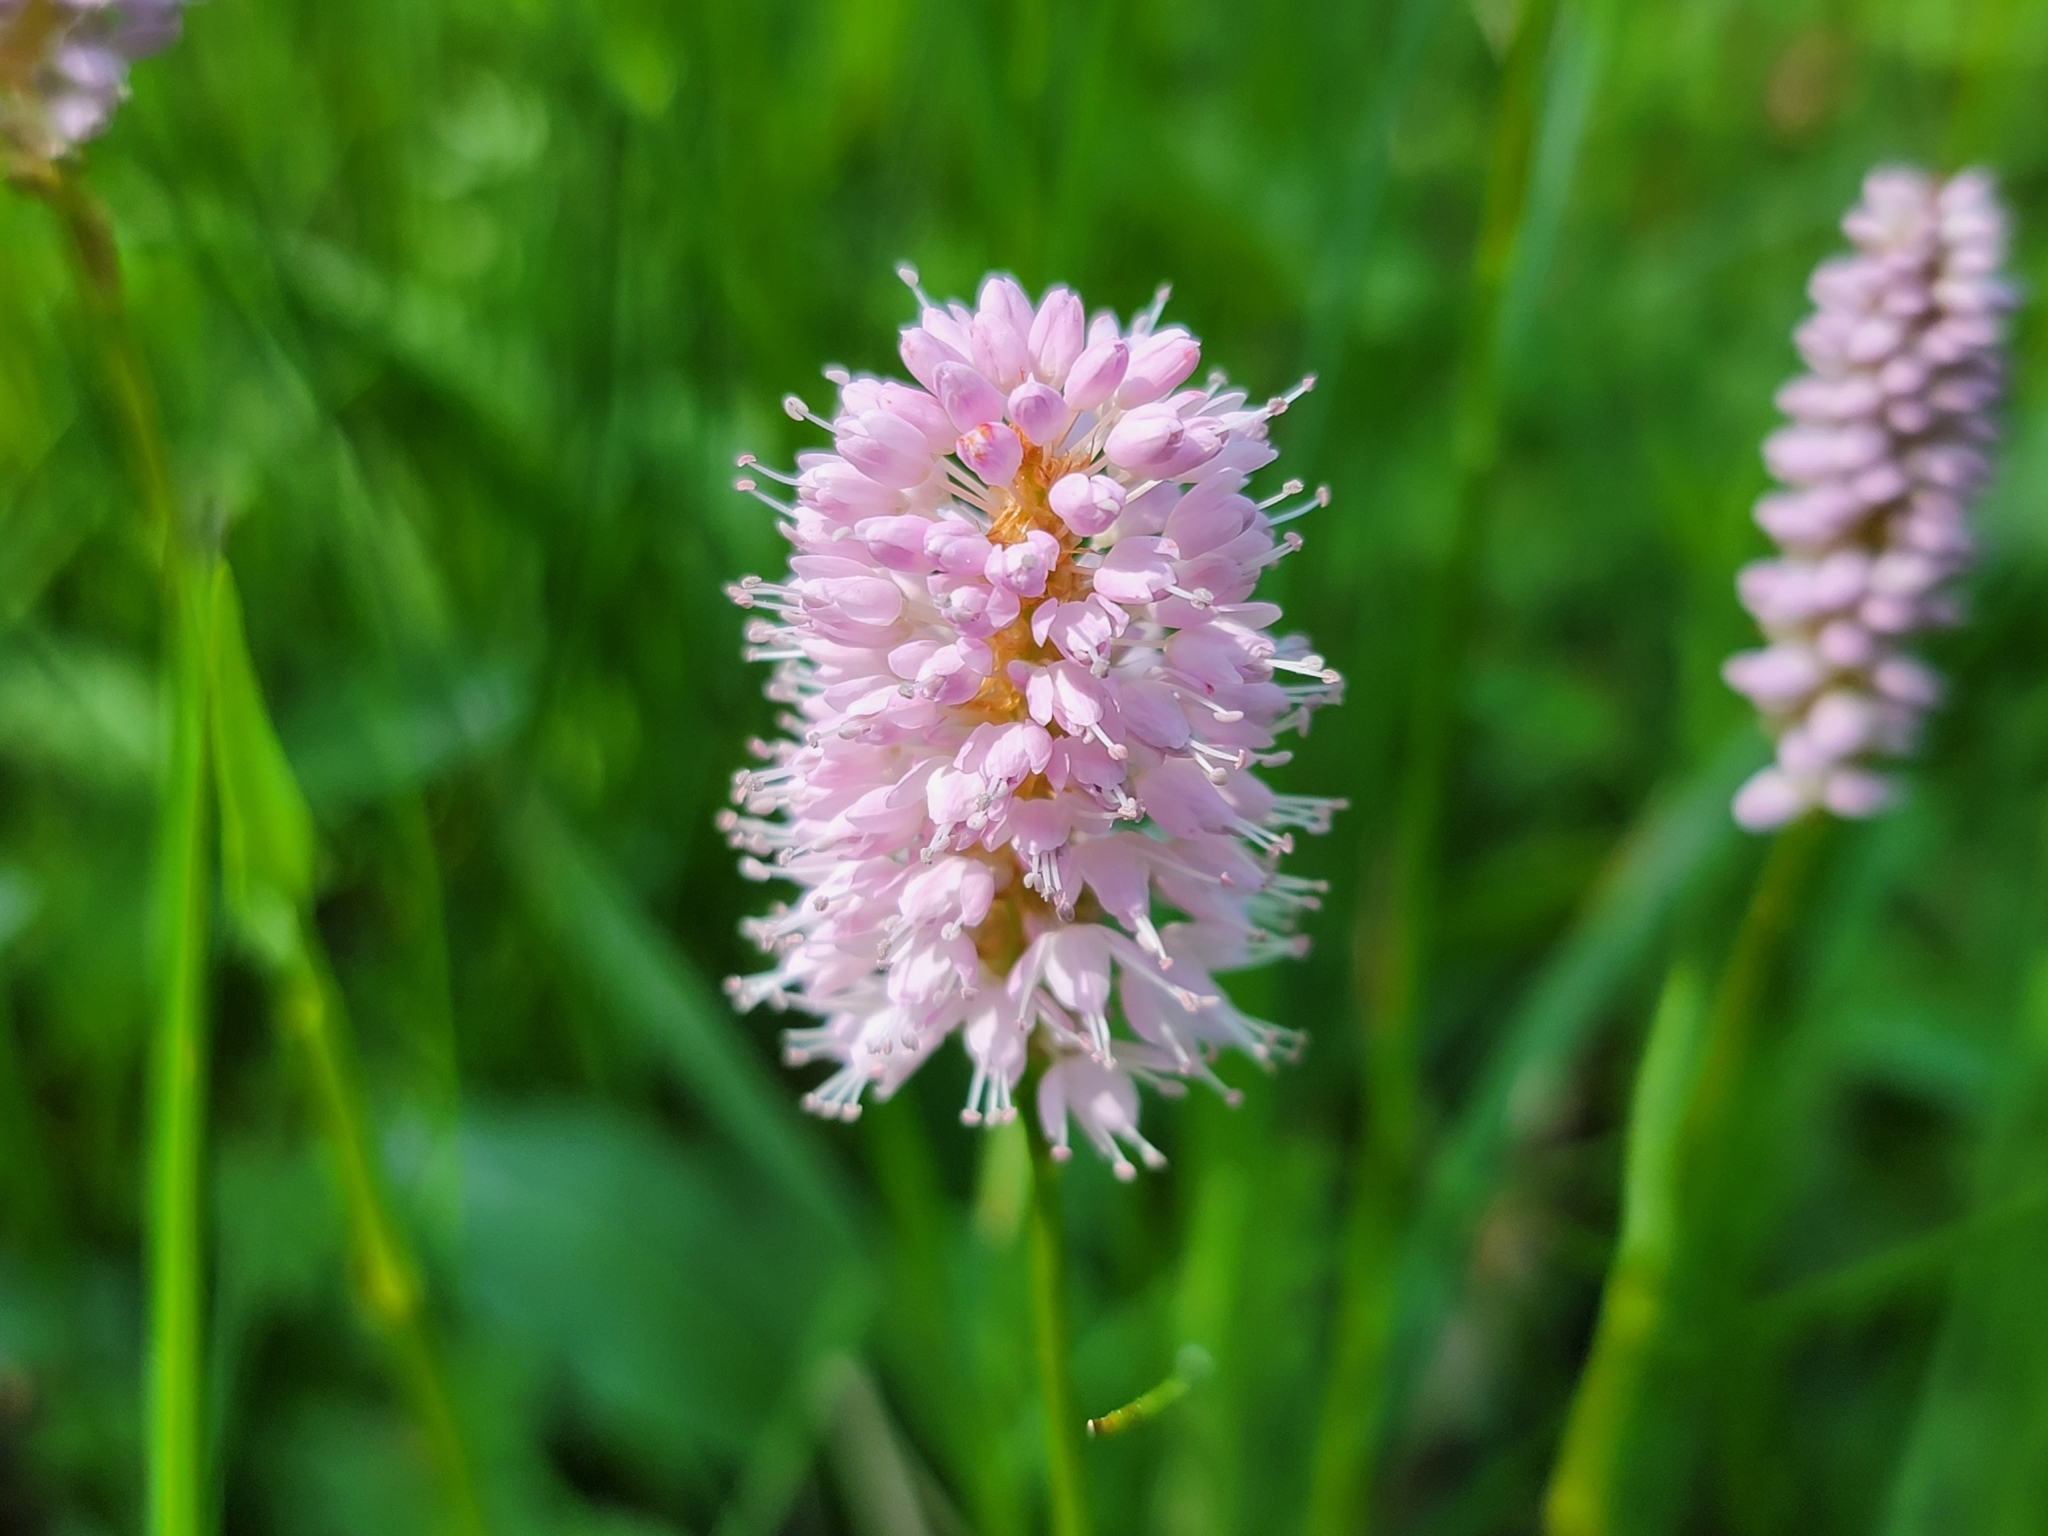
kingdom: Plantae
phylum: Tracheophyta
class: Magnoliopsida
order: Caryophyllales
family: Polygonaceae
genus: Bistorta
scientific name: Bistorta officinalis
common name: Common bistort
